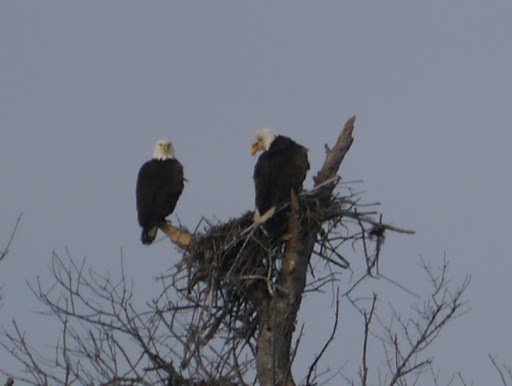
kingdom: Animalia
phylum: Chordata
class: Aves
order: Accipitriformes
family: Accipitridae
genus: Haliaeetus
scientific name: Haliaeetus leucocephalus
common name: Bald eagle
